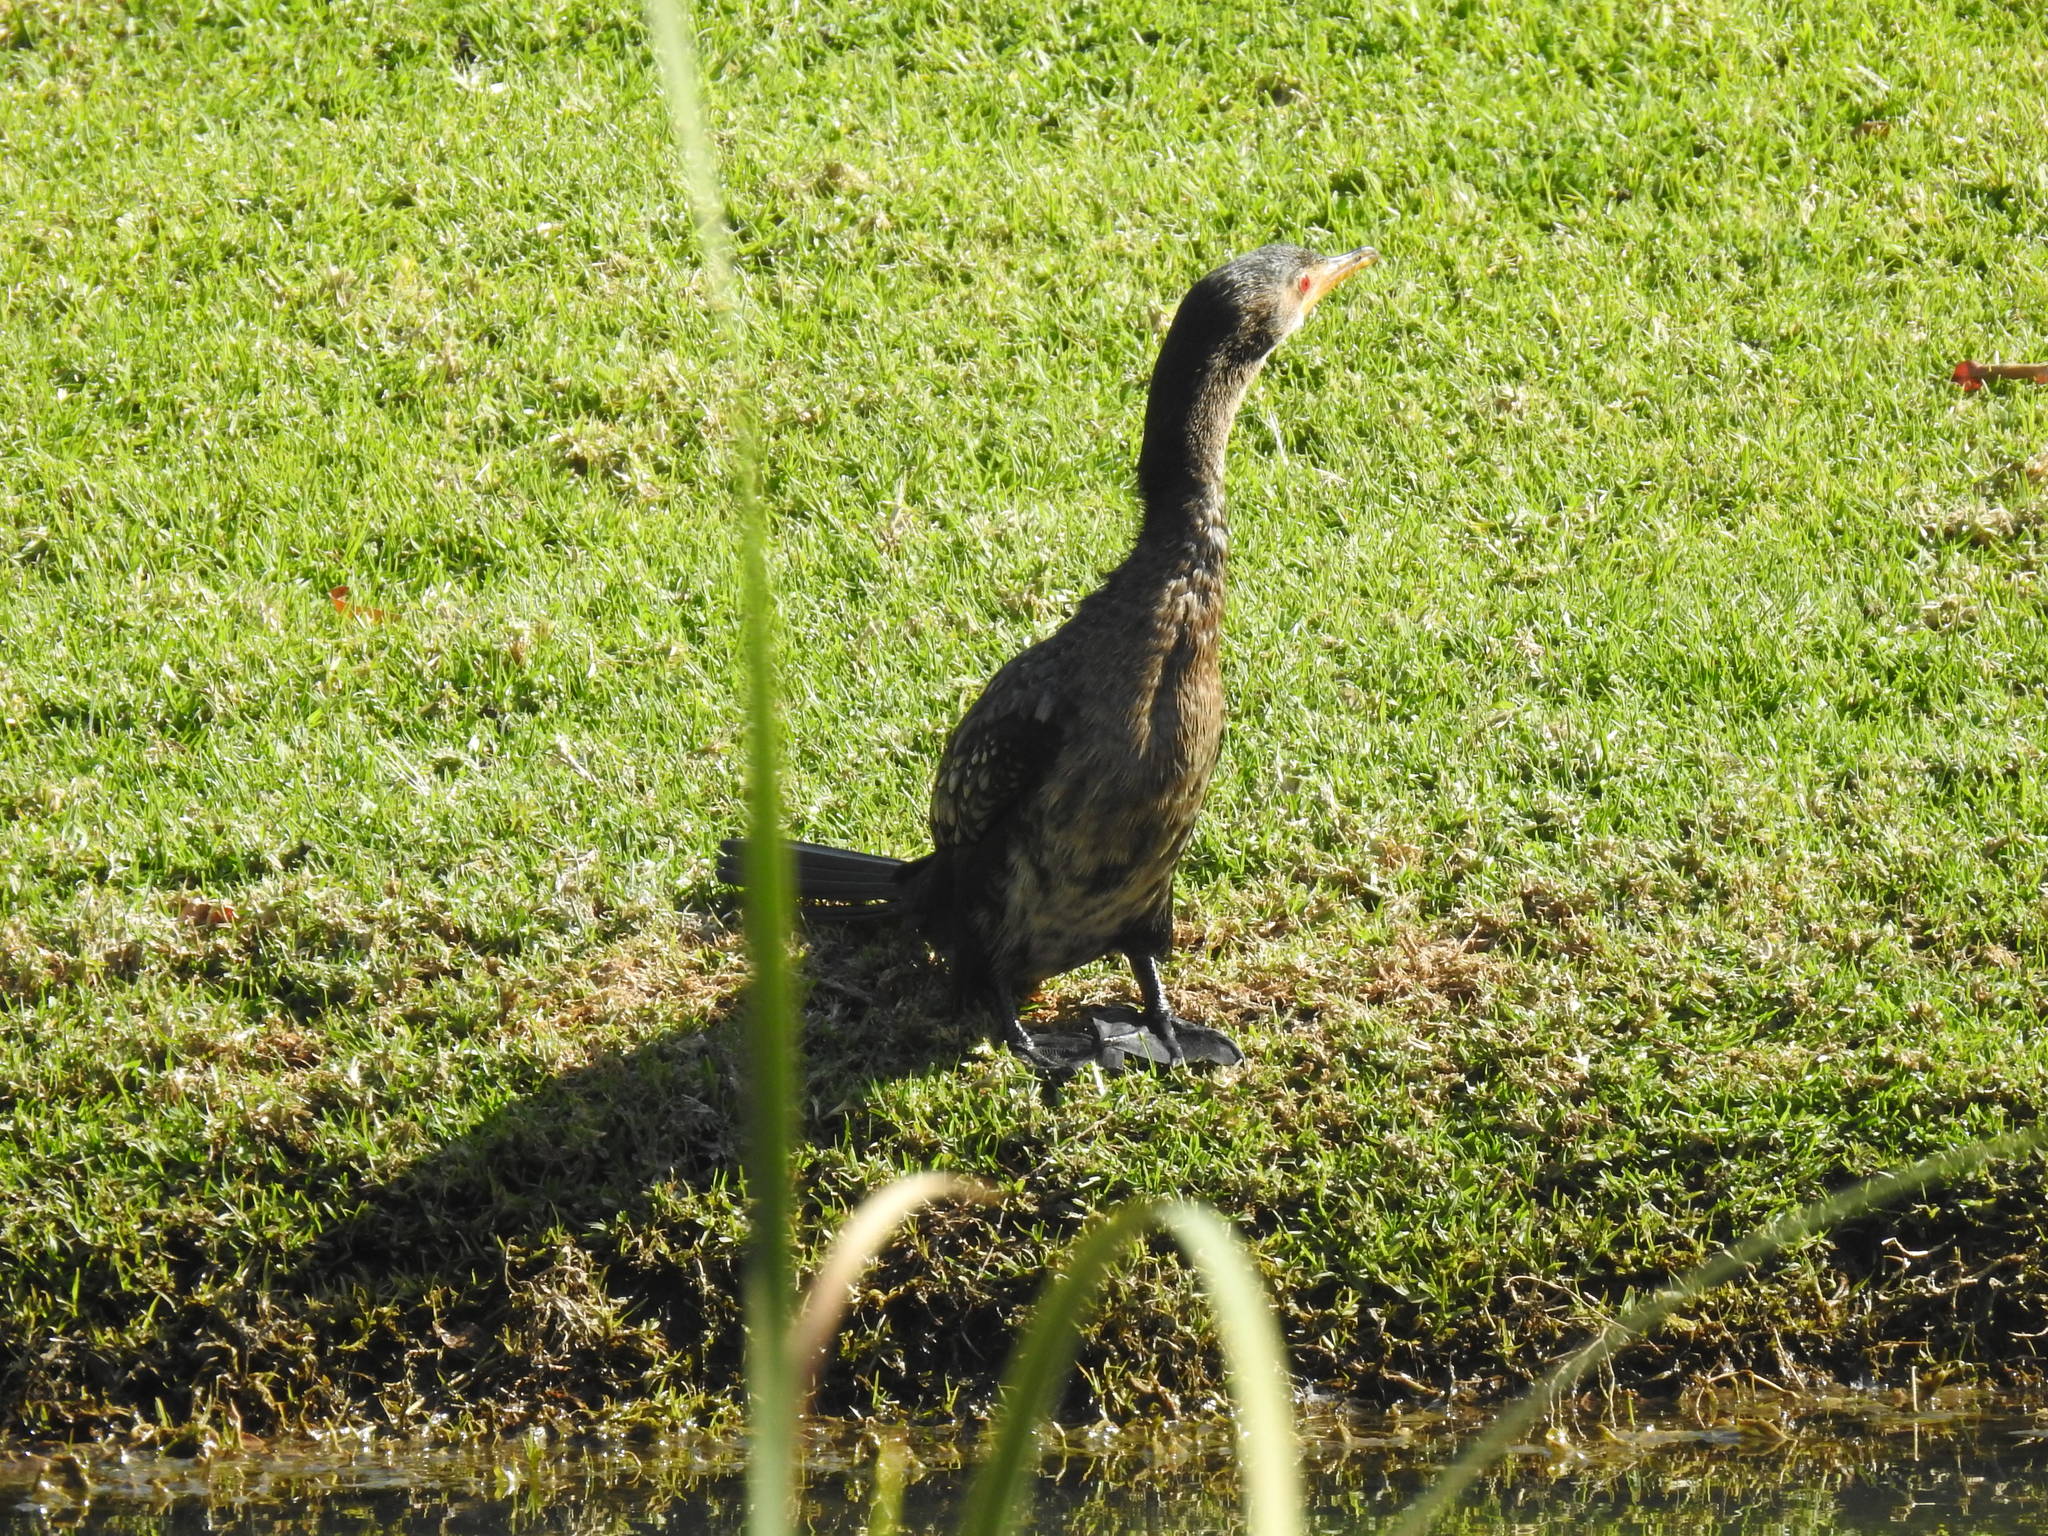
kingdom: Animalia
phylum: Chordata
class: Aves
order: Suliformes
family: Phalacrocoracidae
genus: Microcarbo
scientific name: Microcarbo africanus
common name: Long-tailed cormorant
